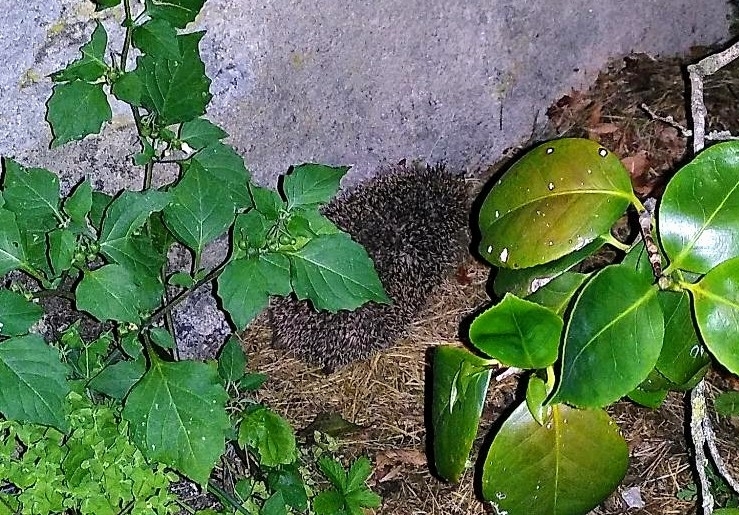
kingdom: Animalia
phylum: Chordata
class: Mammalia
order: Erinaceomorpha
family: Erinaceidae
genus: Erinaceus
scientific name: Erinaceus europaeus
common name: West european hedgehog
